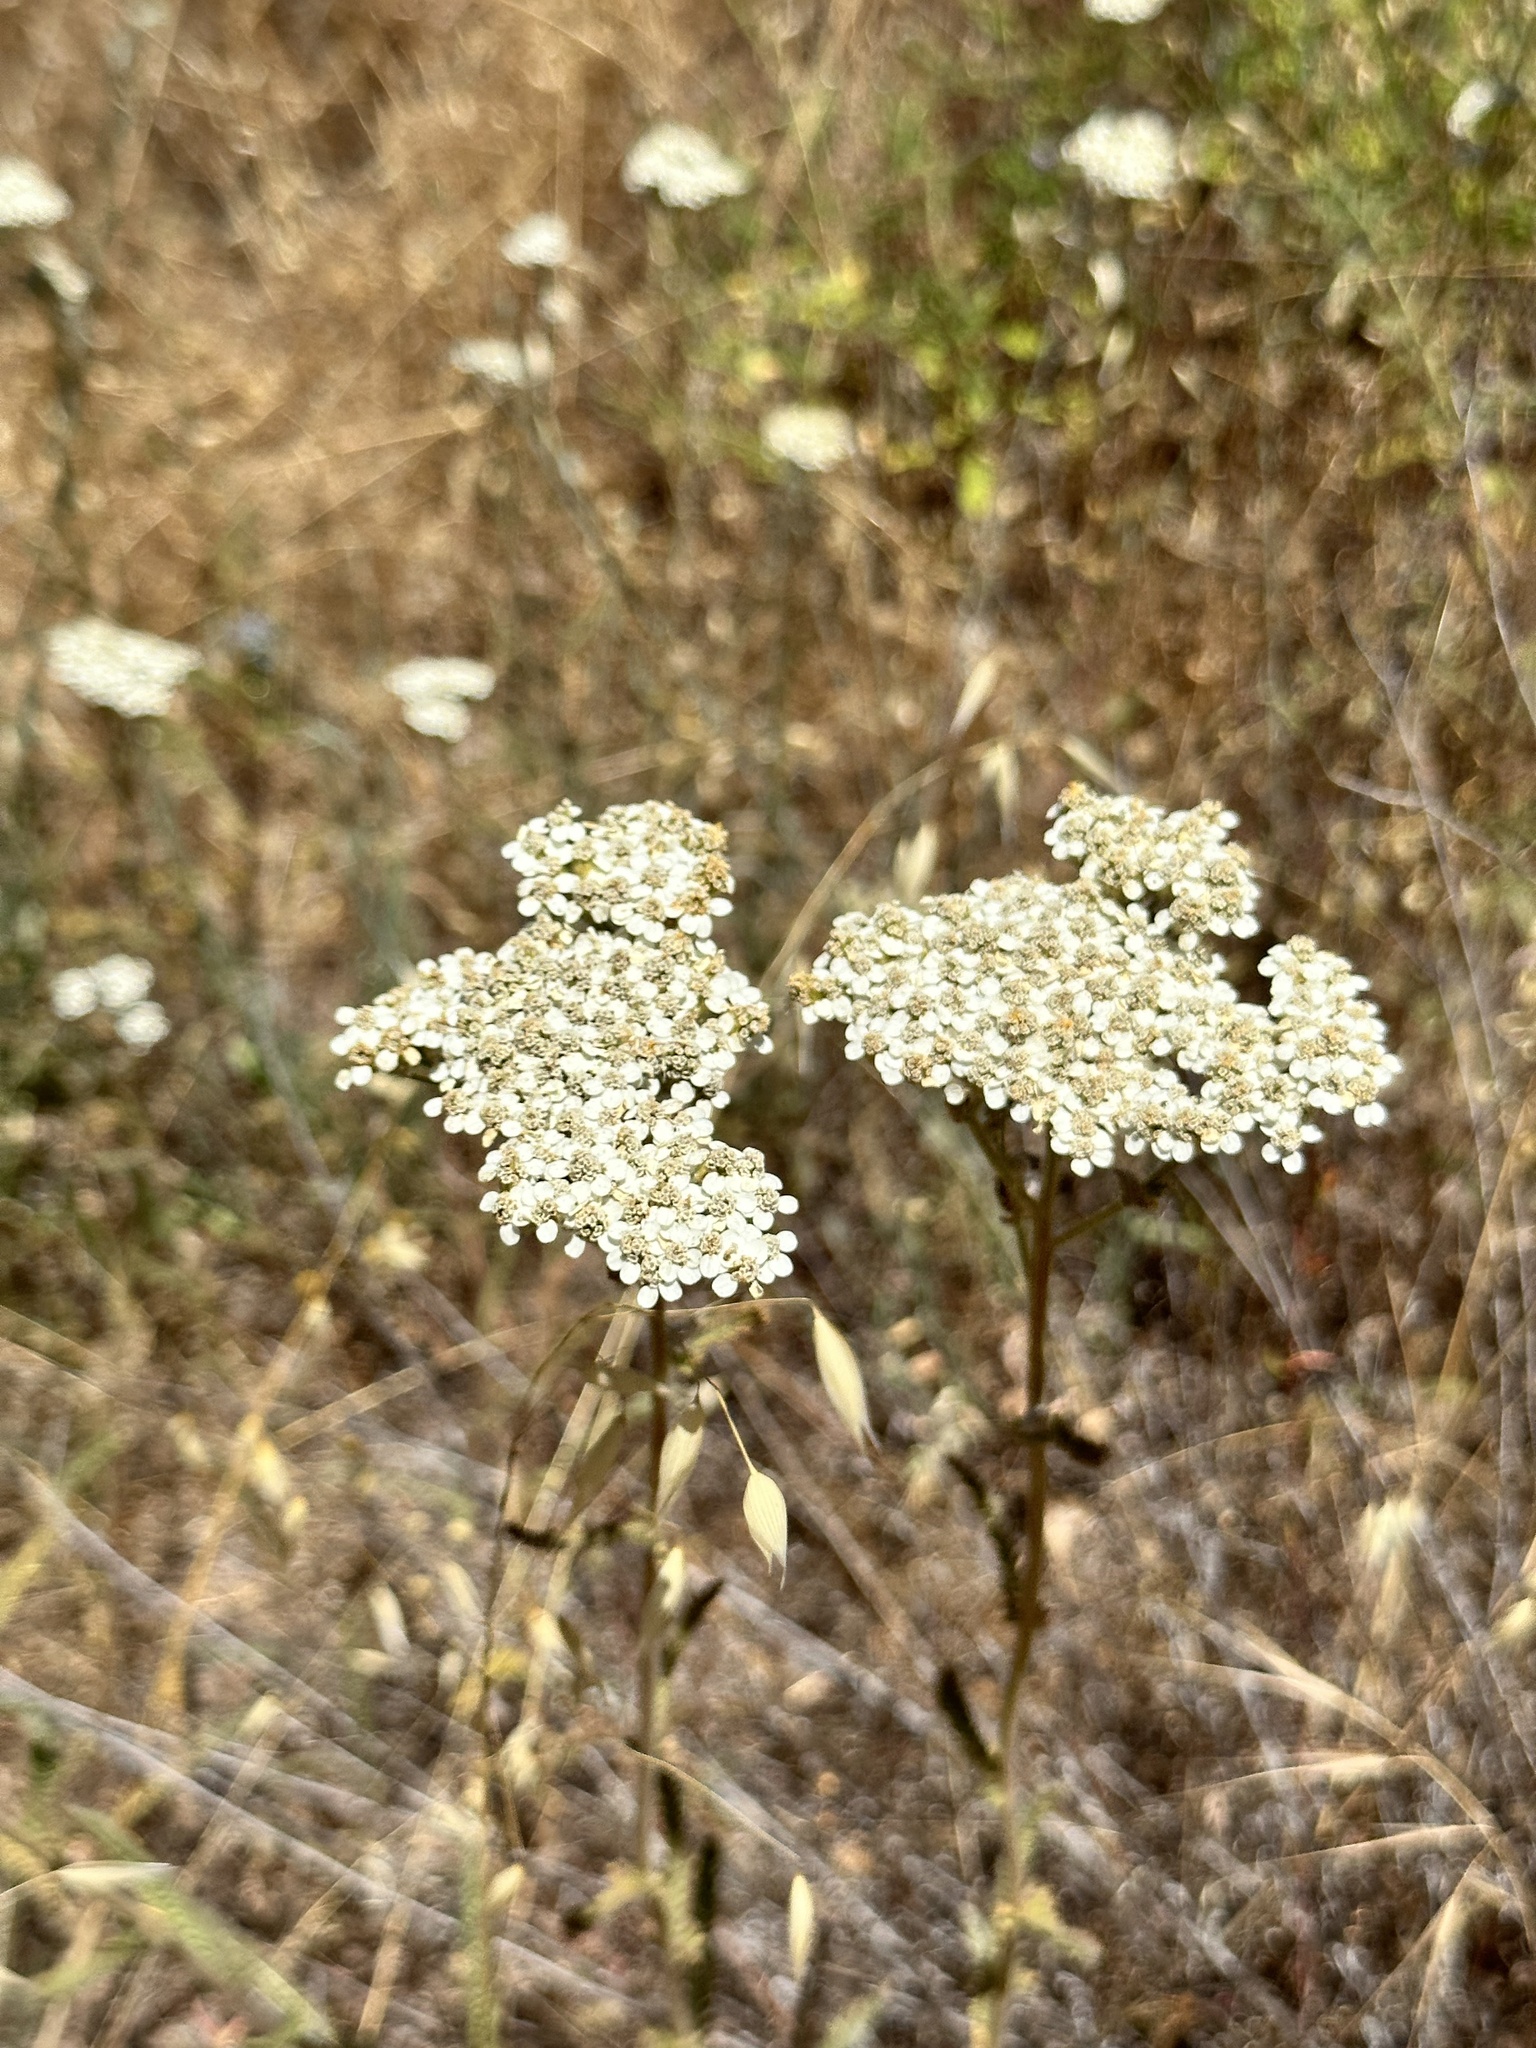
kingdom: Plantae
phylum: Tracheophyta
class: Magnoliopsida
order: Asterales
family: Asteraceae
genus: Achillea
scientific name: Achillea millefolium
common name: Yarrow
